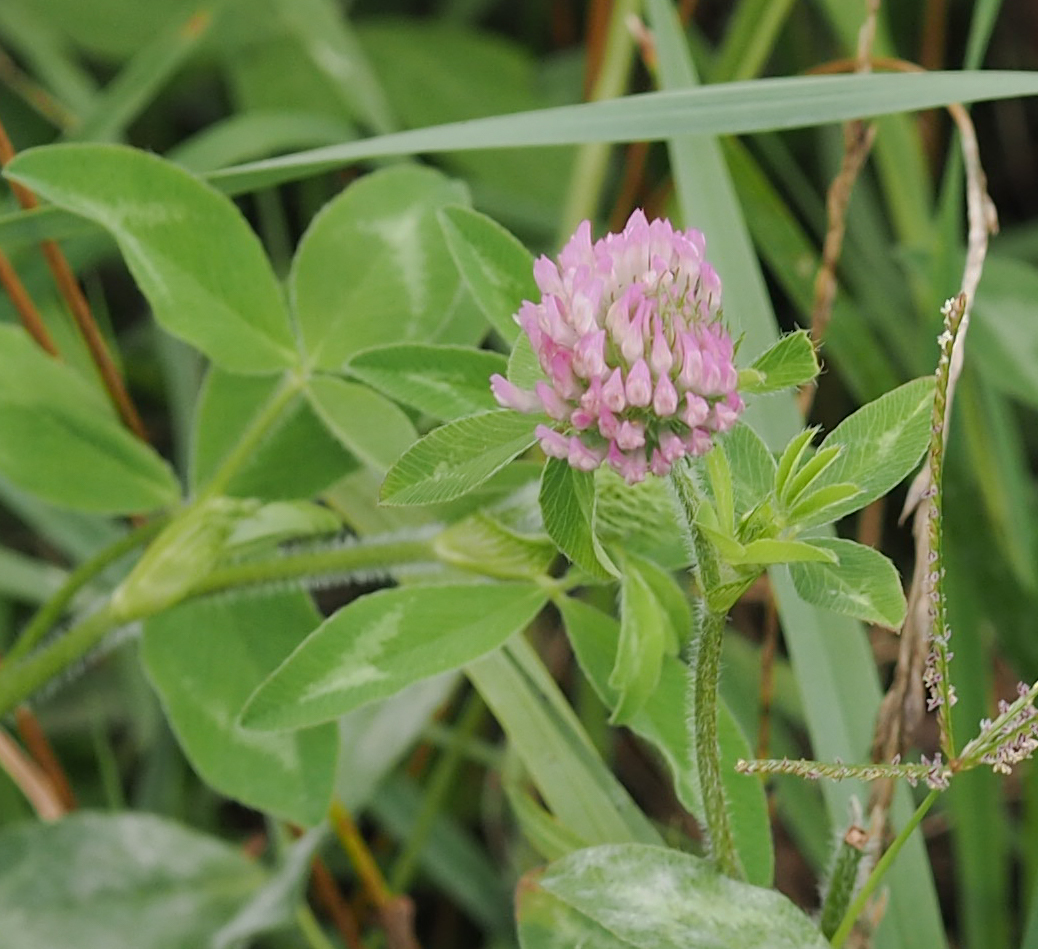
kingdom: Plantae
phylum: Tracheophyta
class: Magnoliopsida
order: Fabales
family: Fabaceae
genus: Trifolium
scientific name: Trifolium pratense
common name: Red clover
